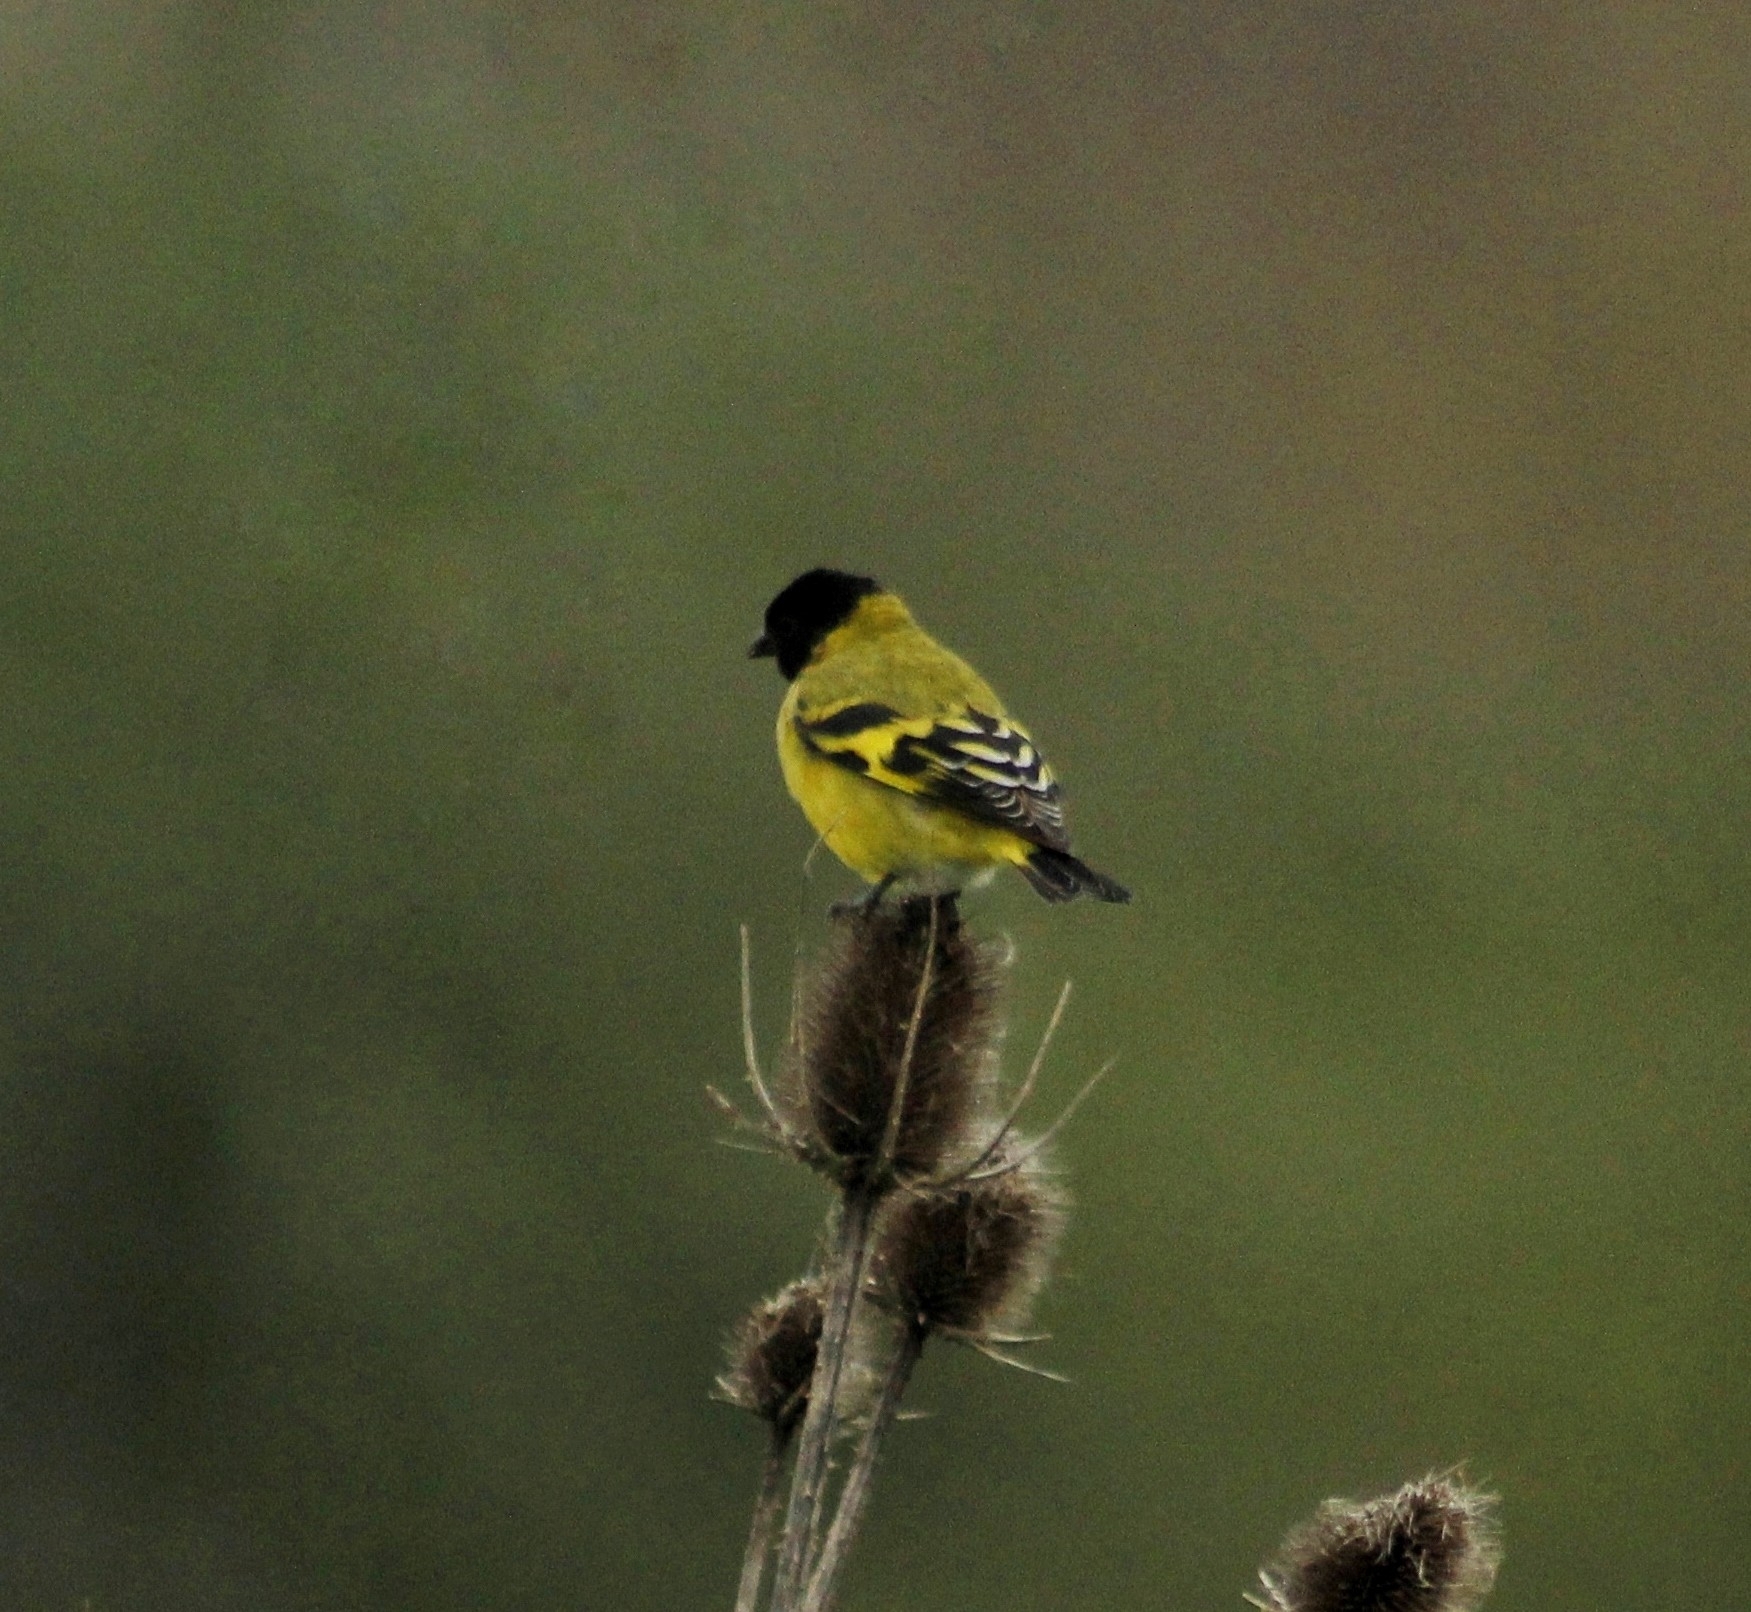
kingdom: Animalia
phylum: Chordata
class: Aves
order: Passeriformes
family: Fringillidae
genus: Spinus
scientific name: Spinus magellanicus
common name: Hooded siskin
